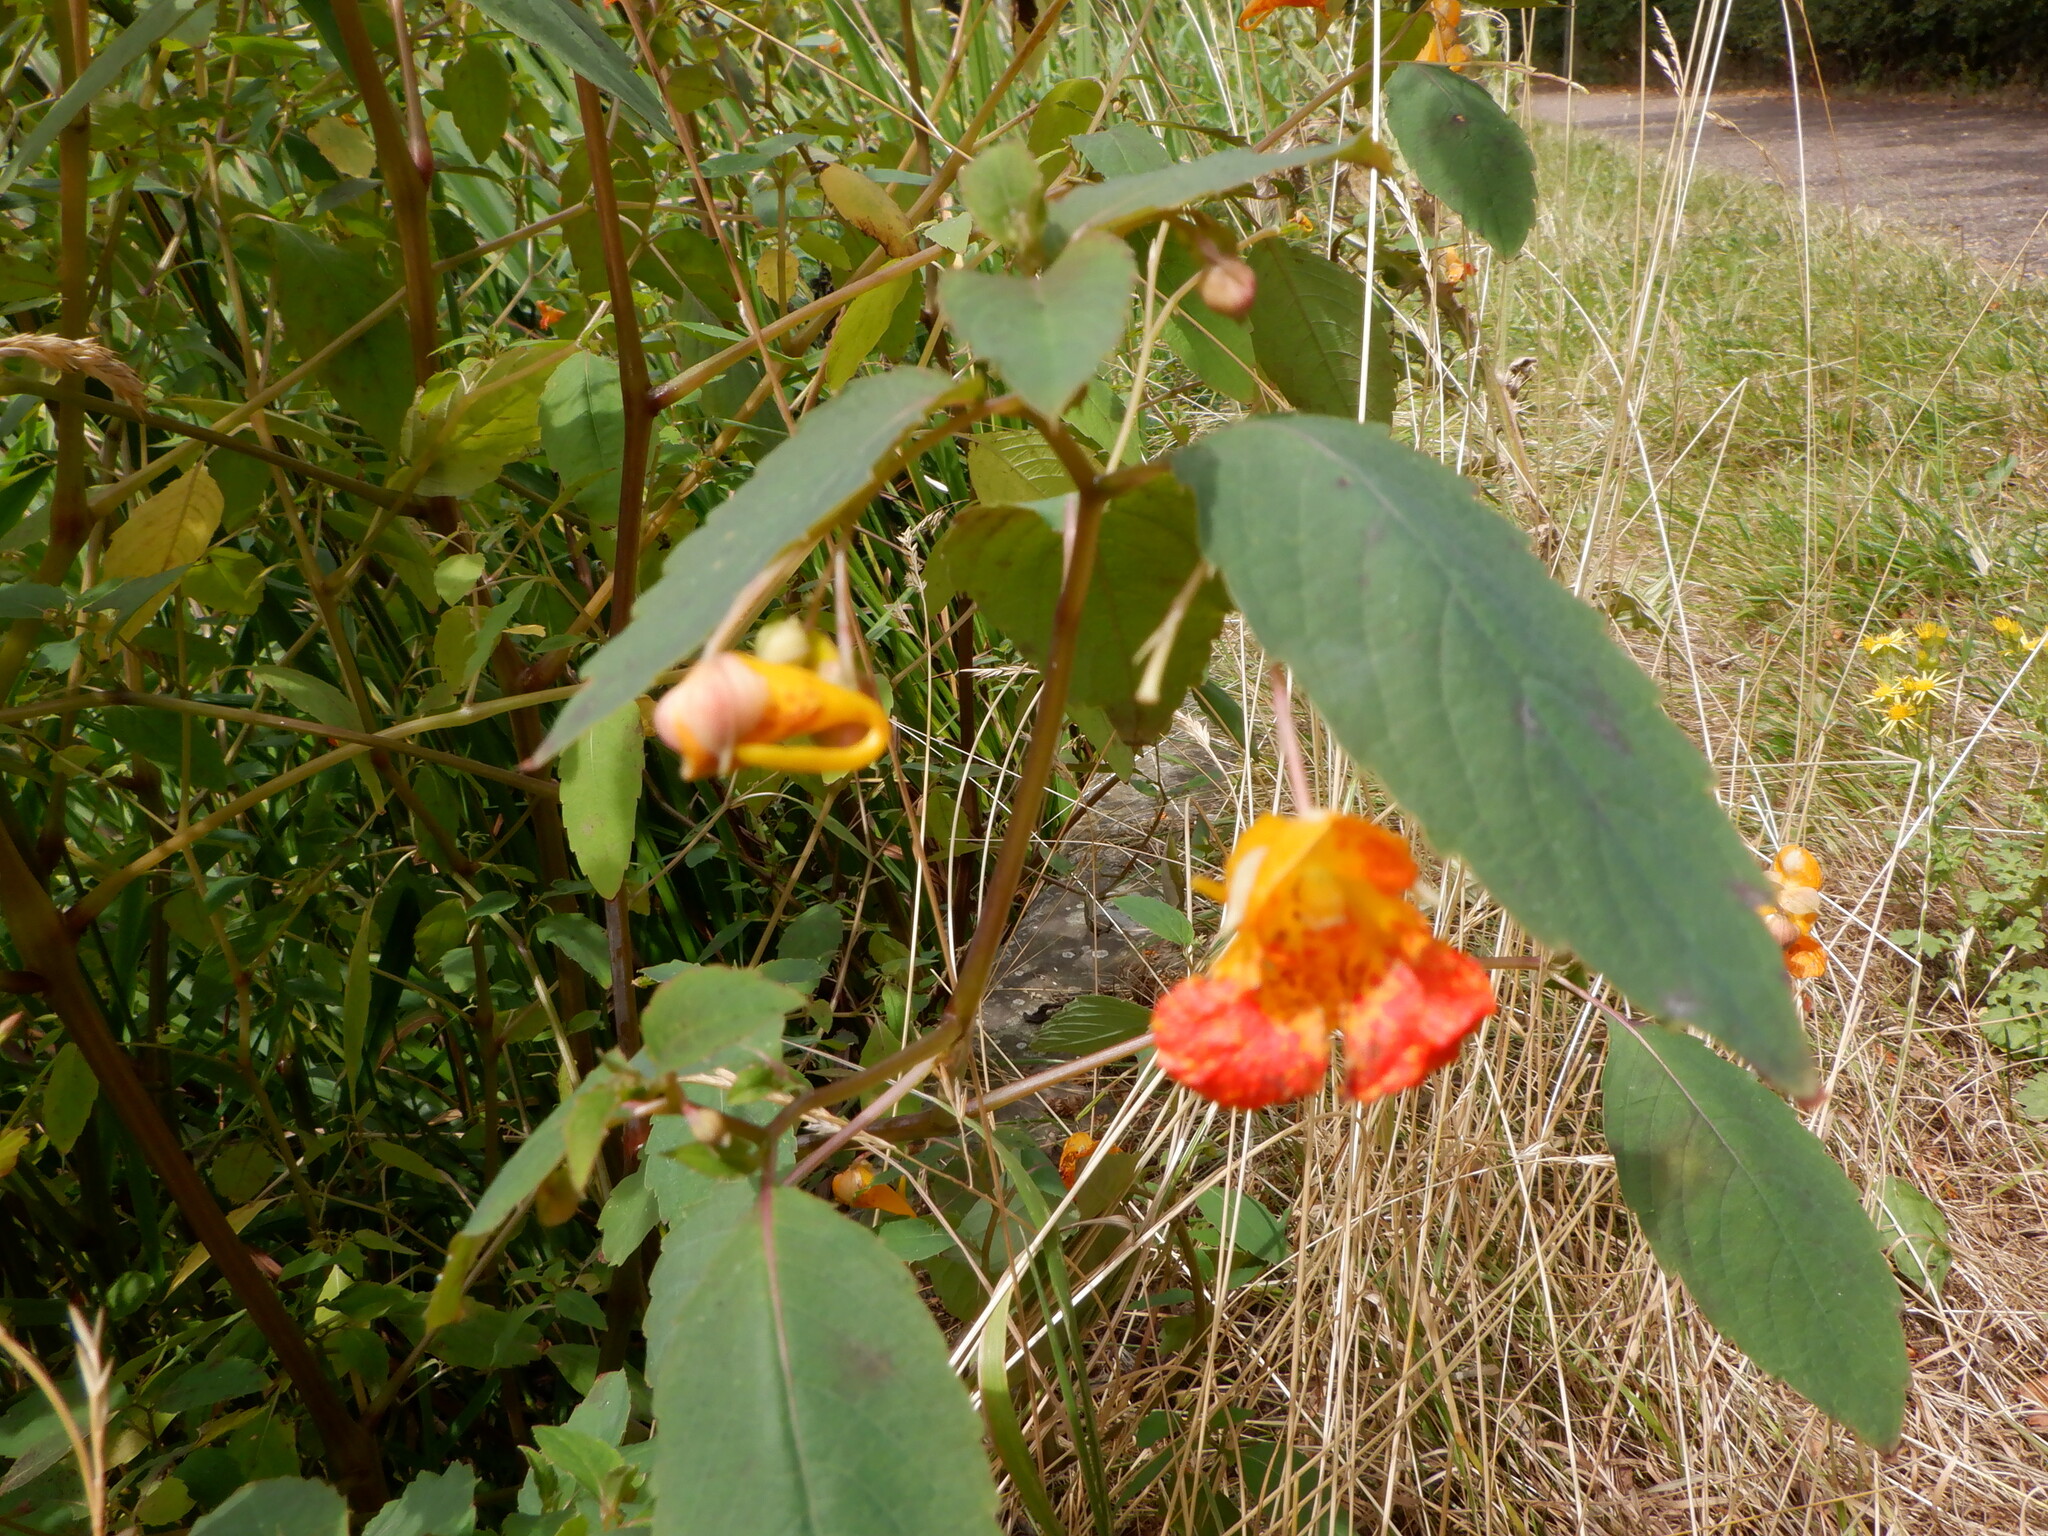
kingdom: Plantae
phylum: Tracheophyta
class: Magnoliopsida
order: Ericales
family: Balsaminaceae
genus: Impatiens
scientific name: Impatiens capensis
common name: Orange balsam
